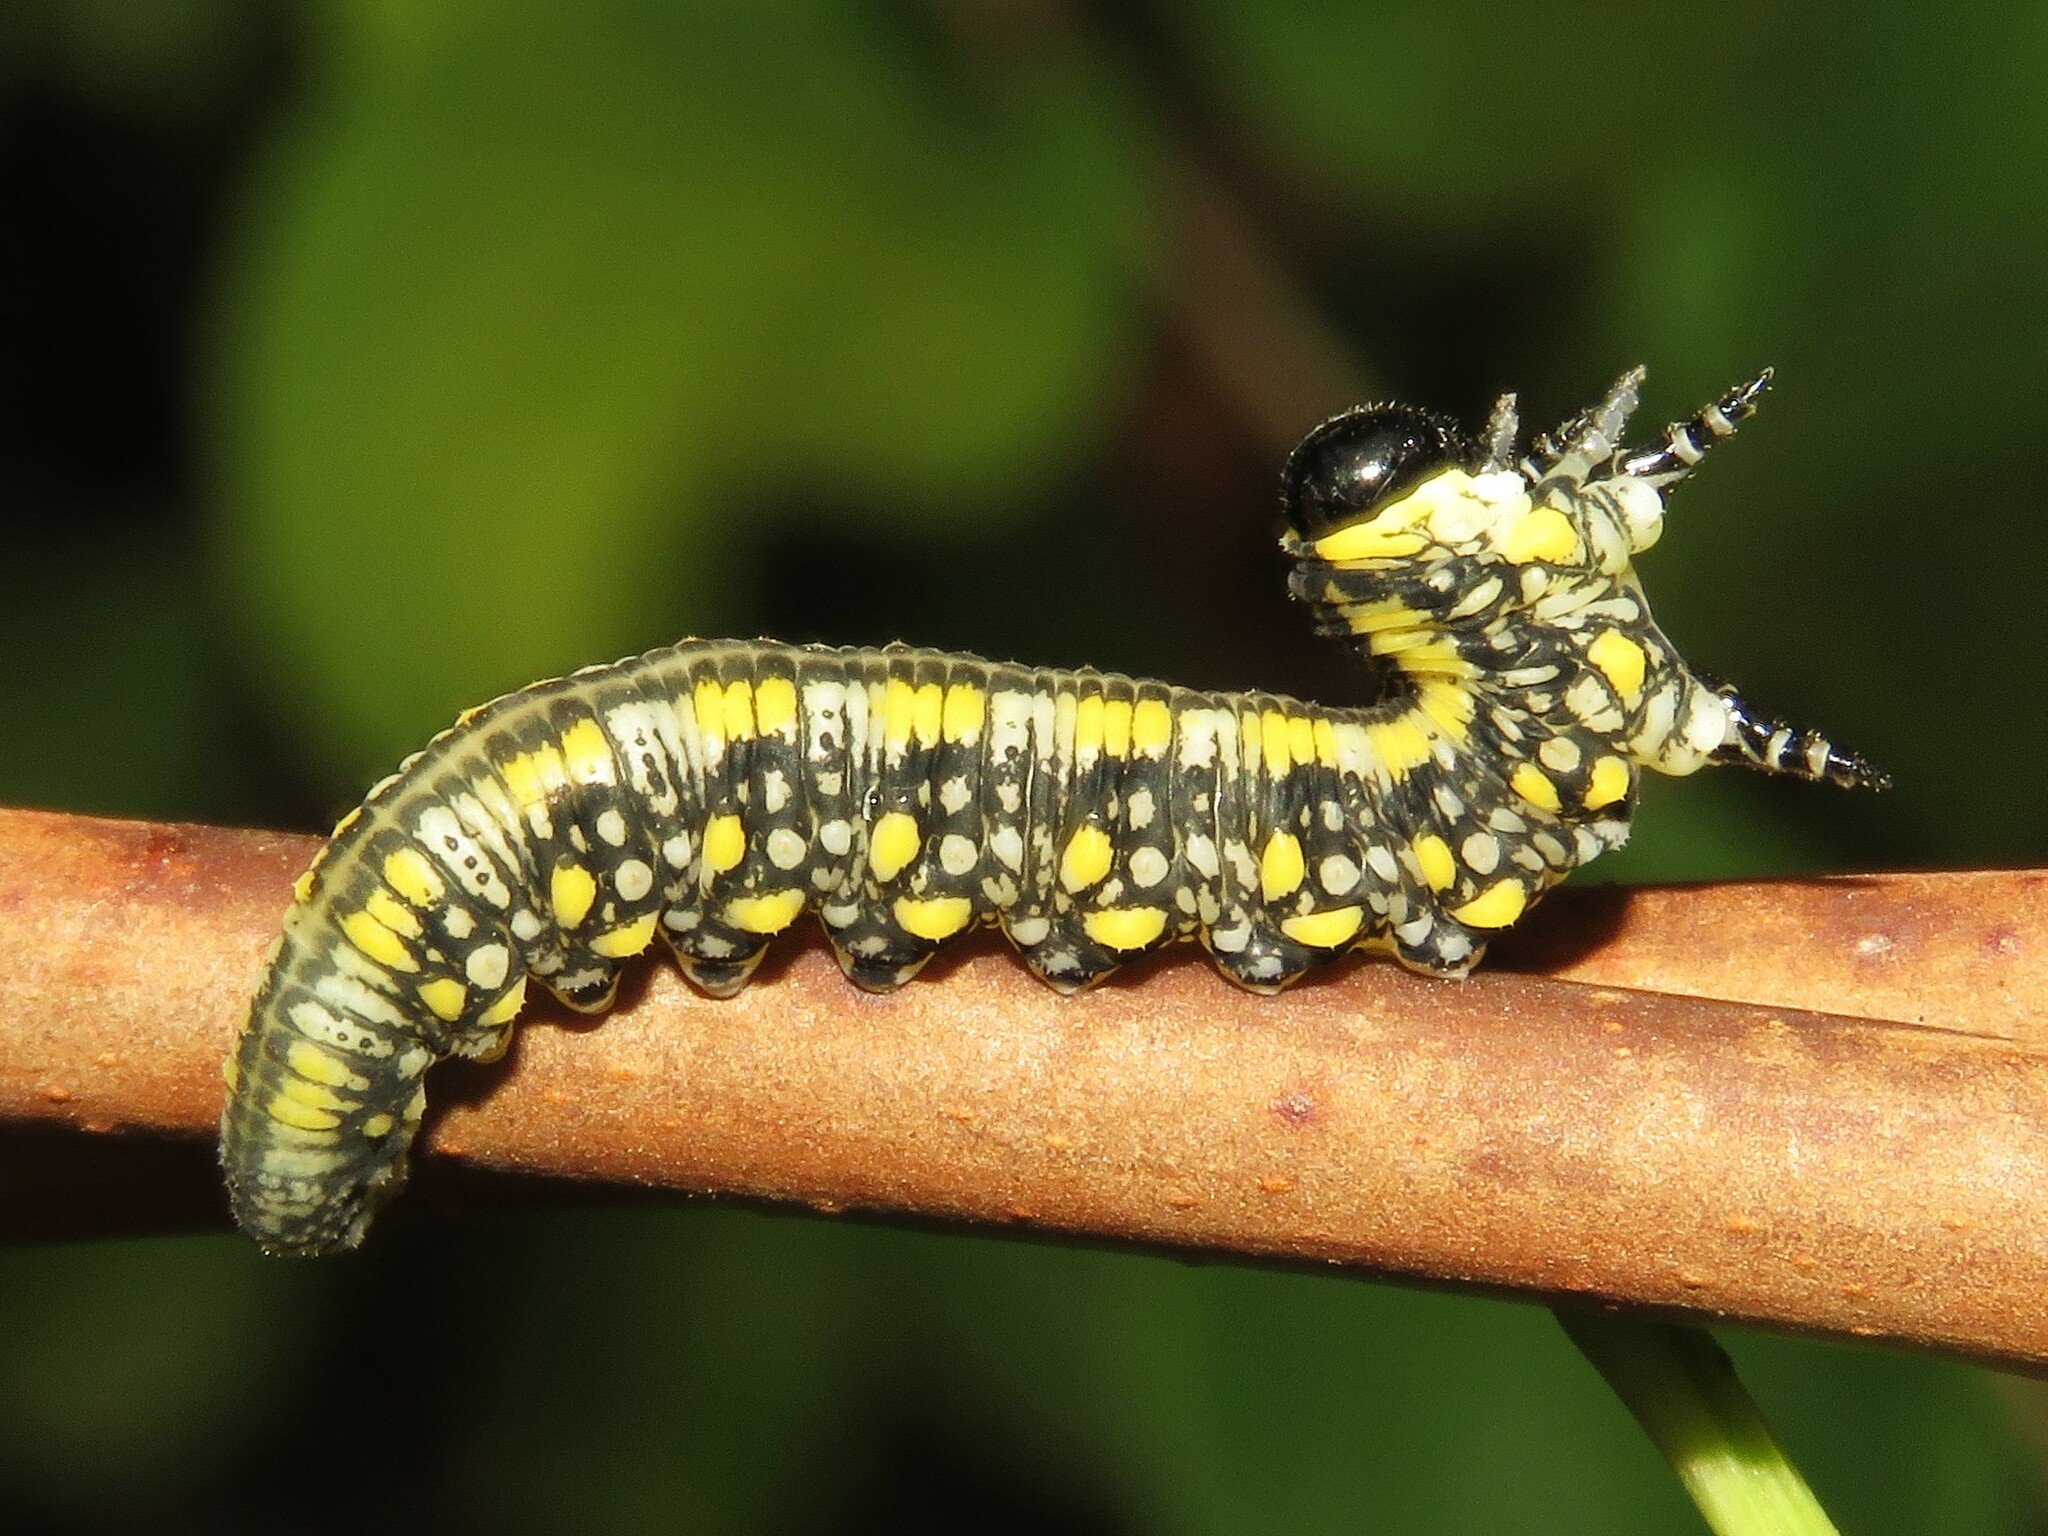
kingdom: Animalia
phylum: Arthropoda
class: Insecta
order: Hymenoptera
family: Diprionidae
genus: Diprion
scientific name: Diprion similis
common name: Pine sawfly
